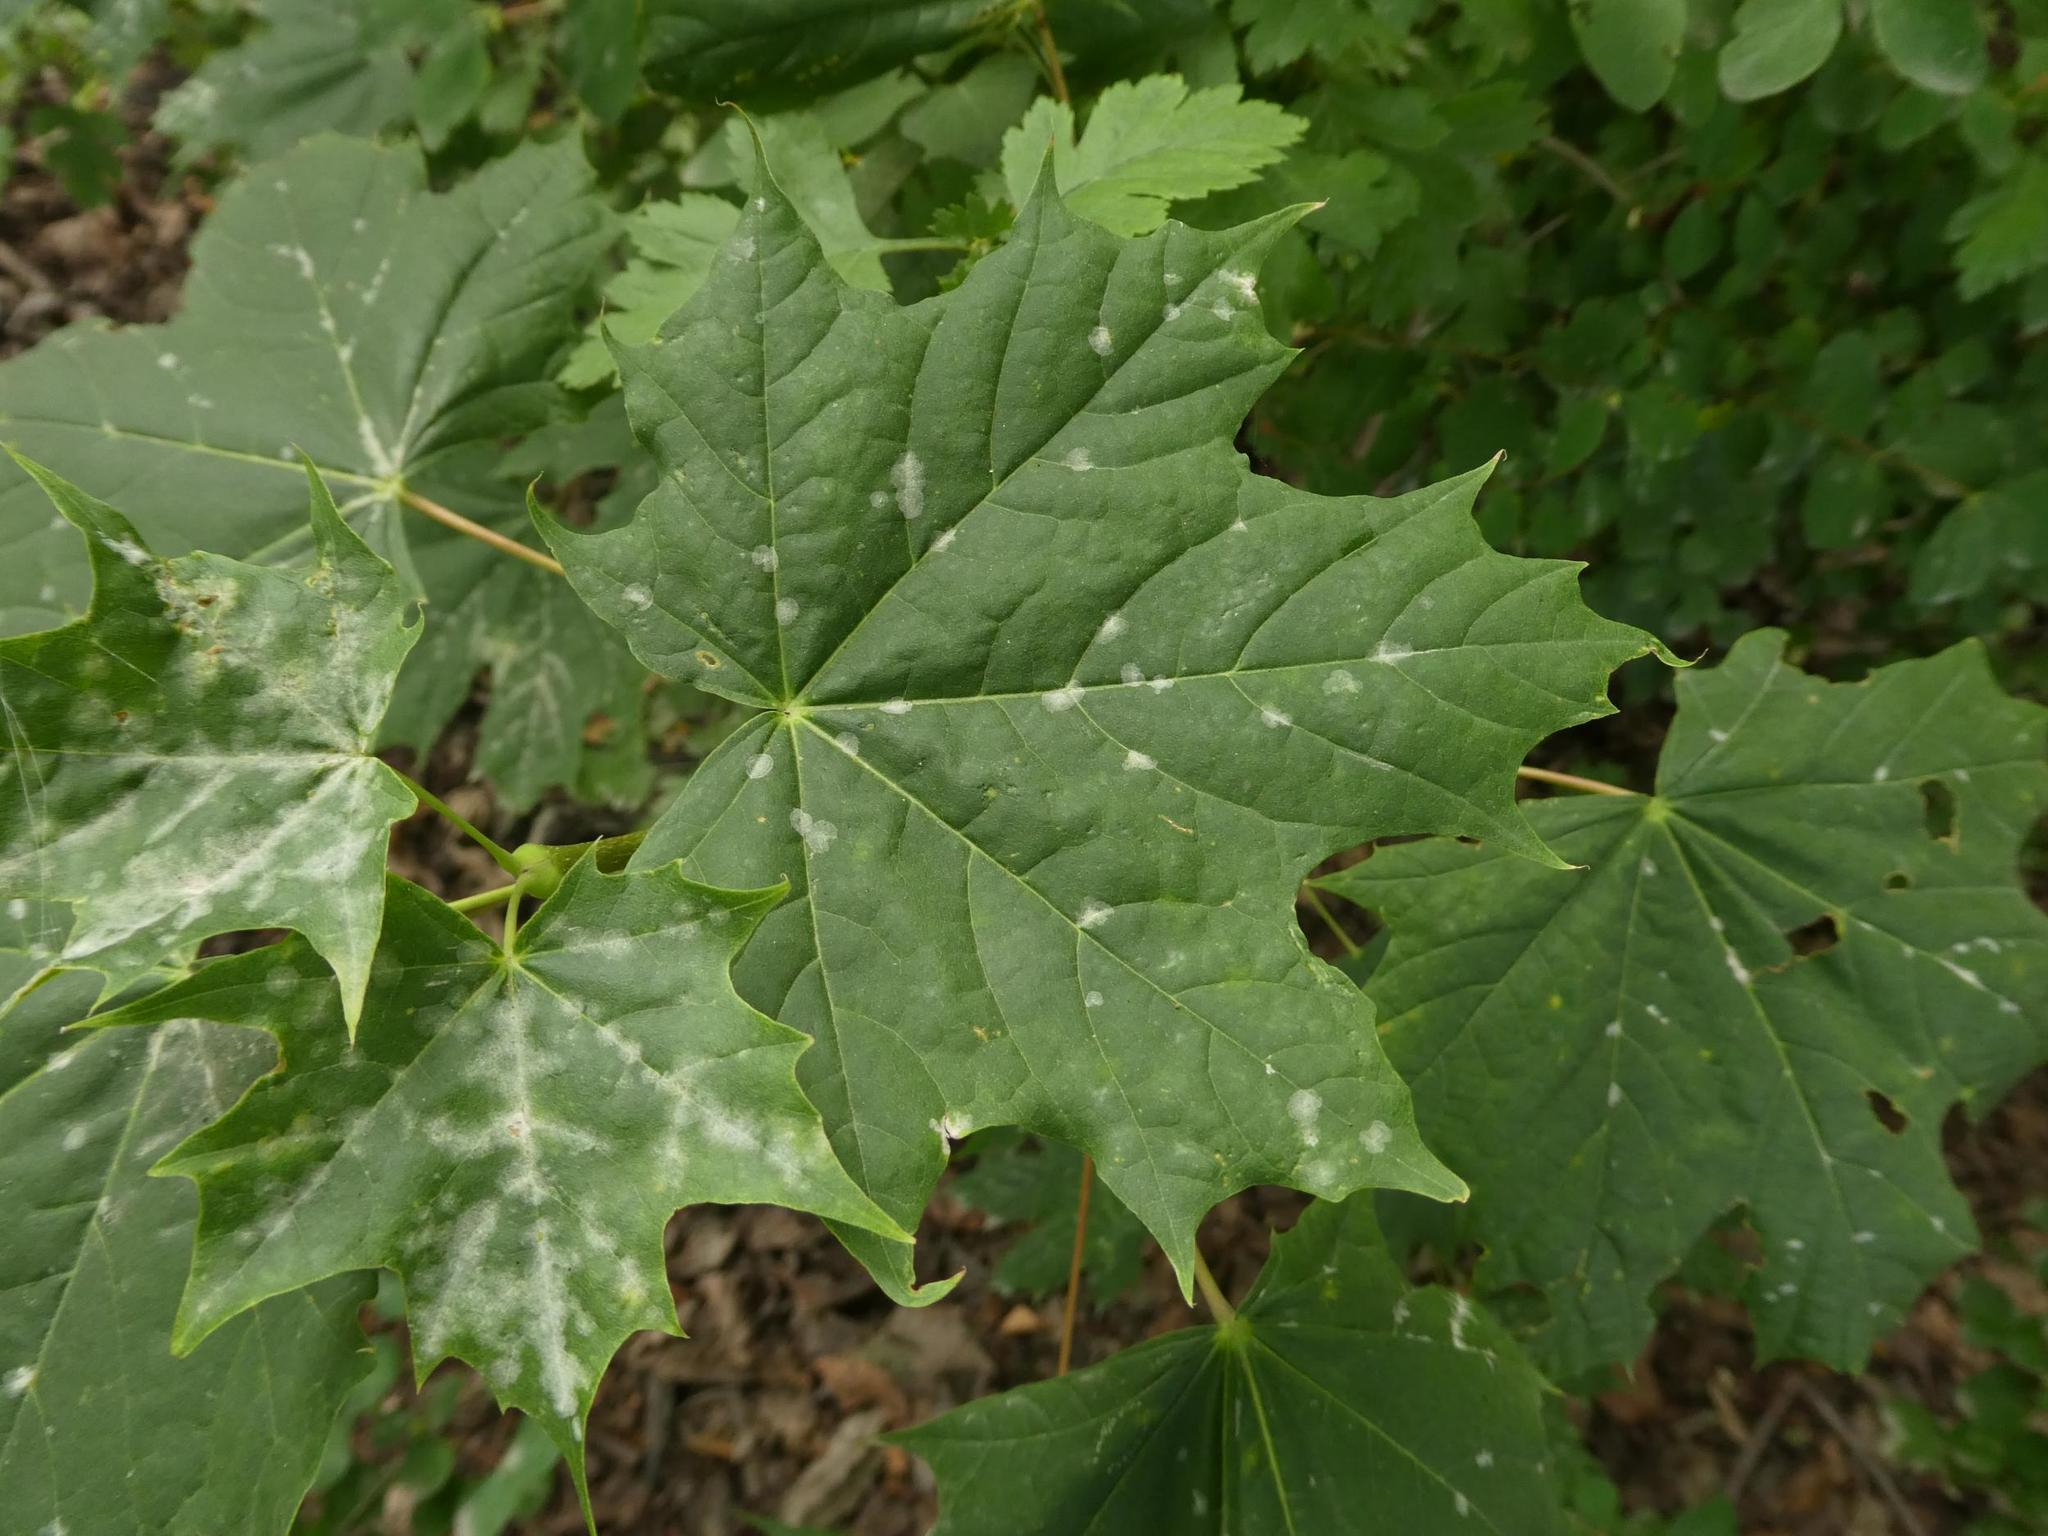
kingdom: Plantae
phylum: Tracheophyta
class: Magnoliopsida
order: Sapindales
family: Sapindaceae
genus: Acer
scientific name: Acer platanoides
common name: Norway maple
